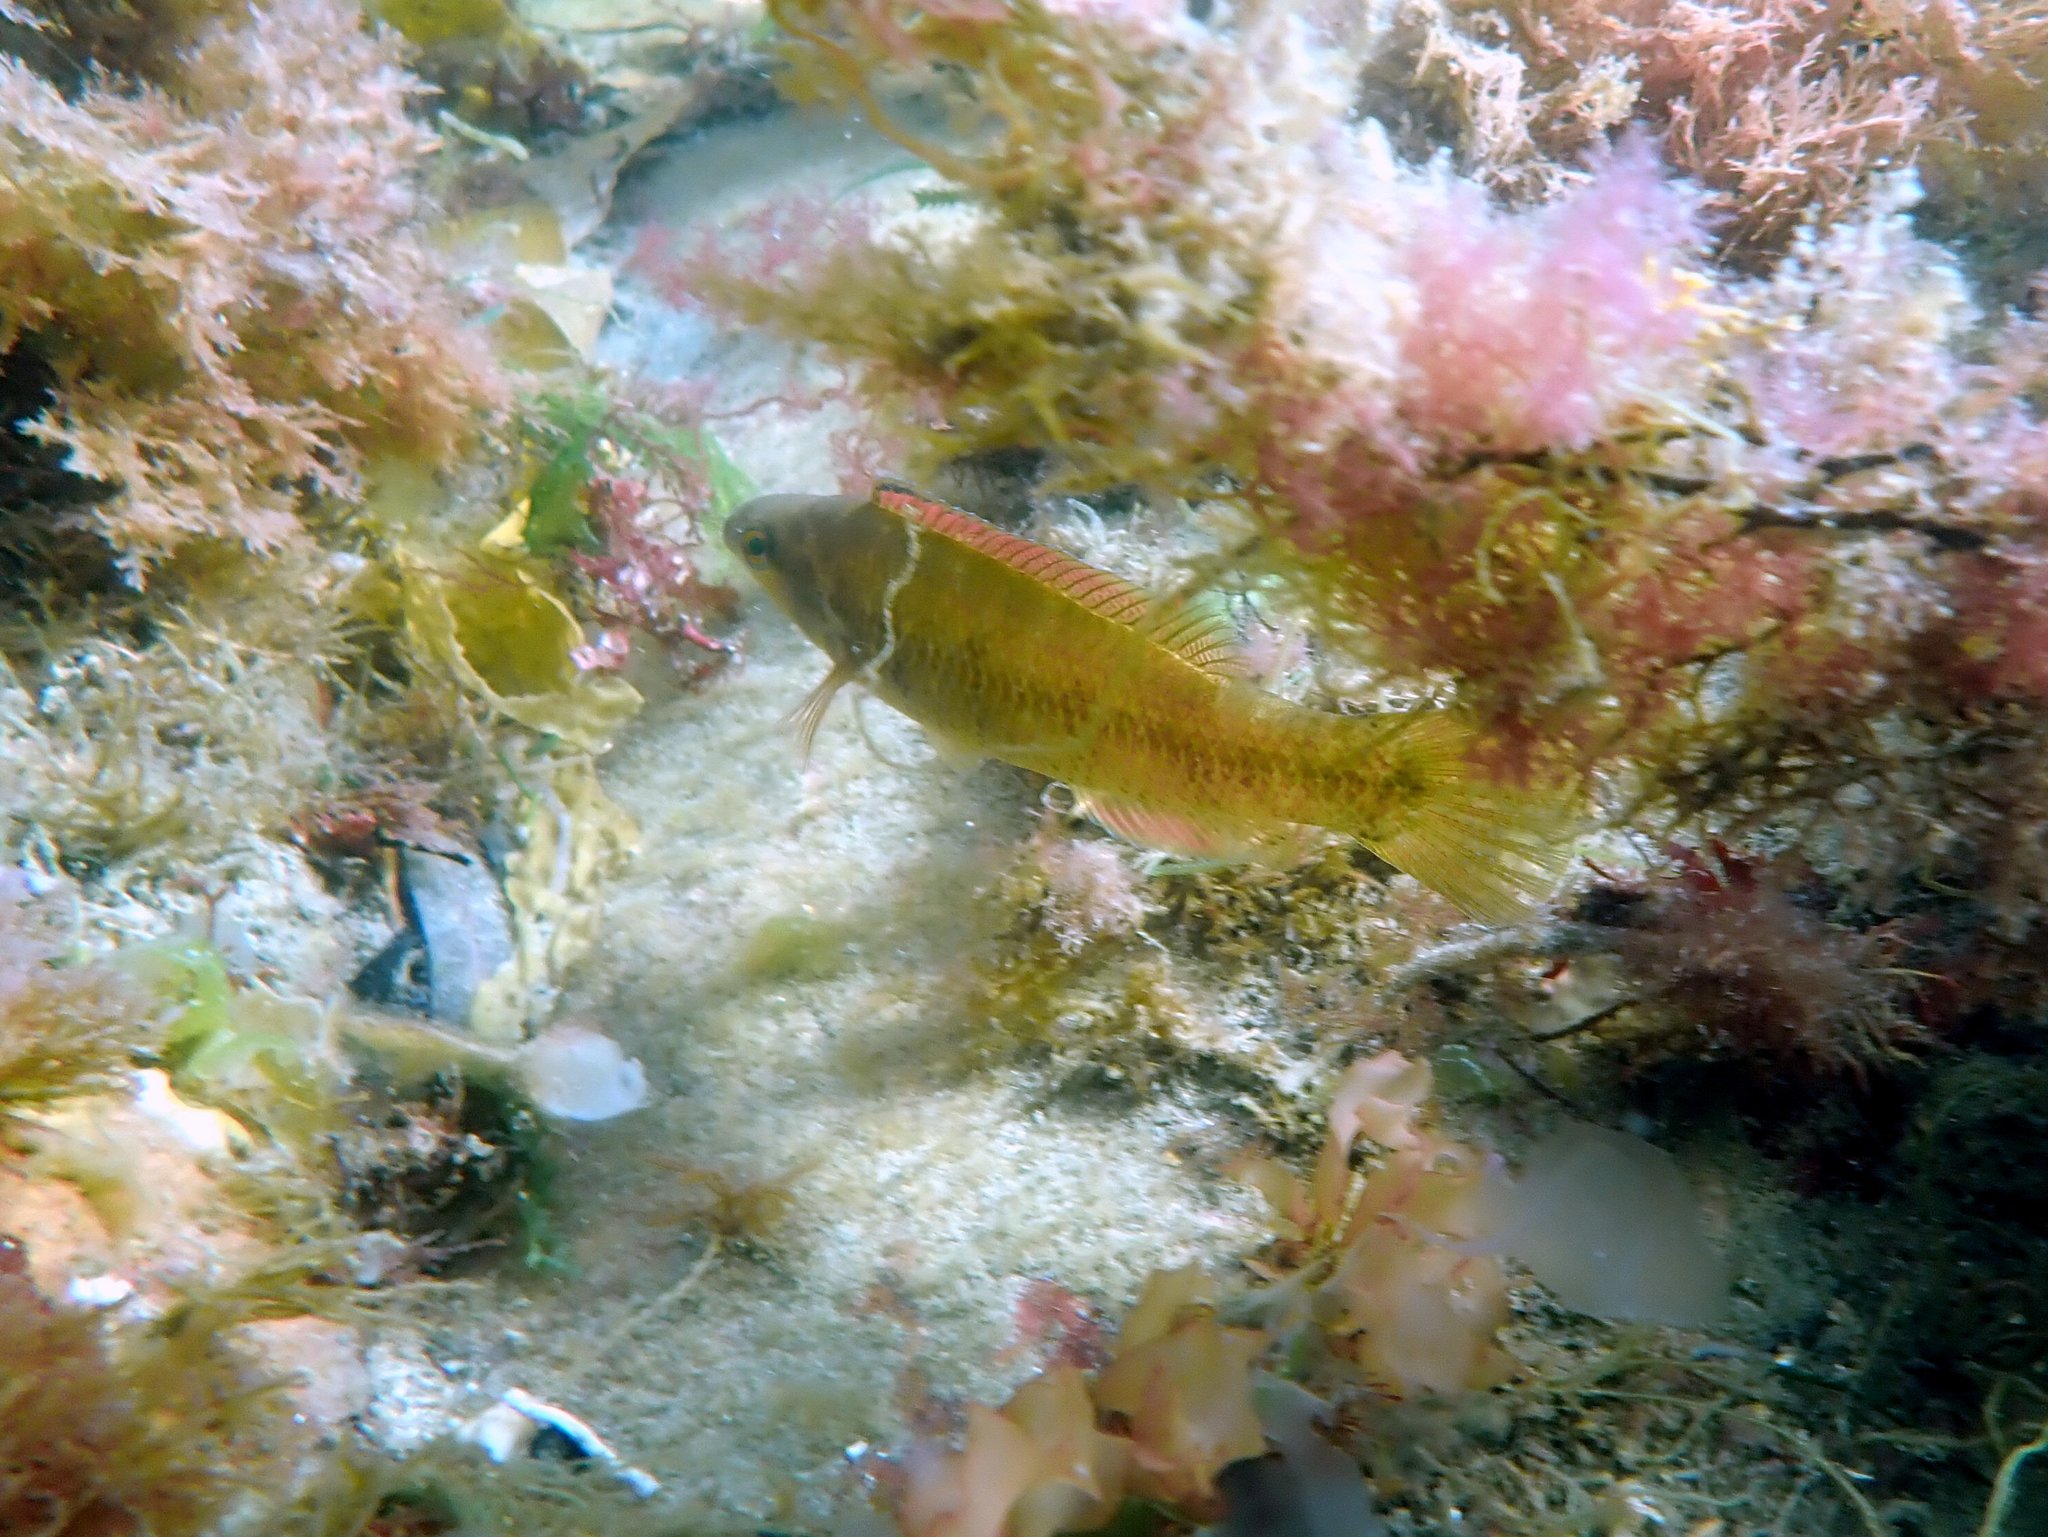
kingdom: Animalia
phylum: Chordata
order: Perciformes
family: Odacidae
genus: Neoodax
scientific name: Neoodax balteatus
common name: Ground mullet
